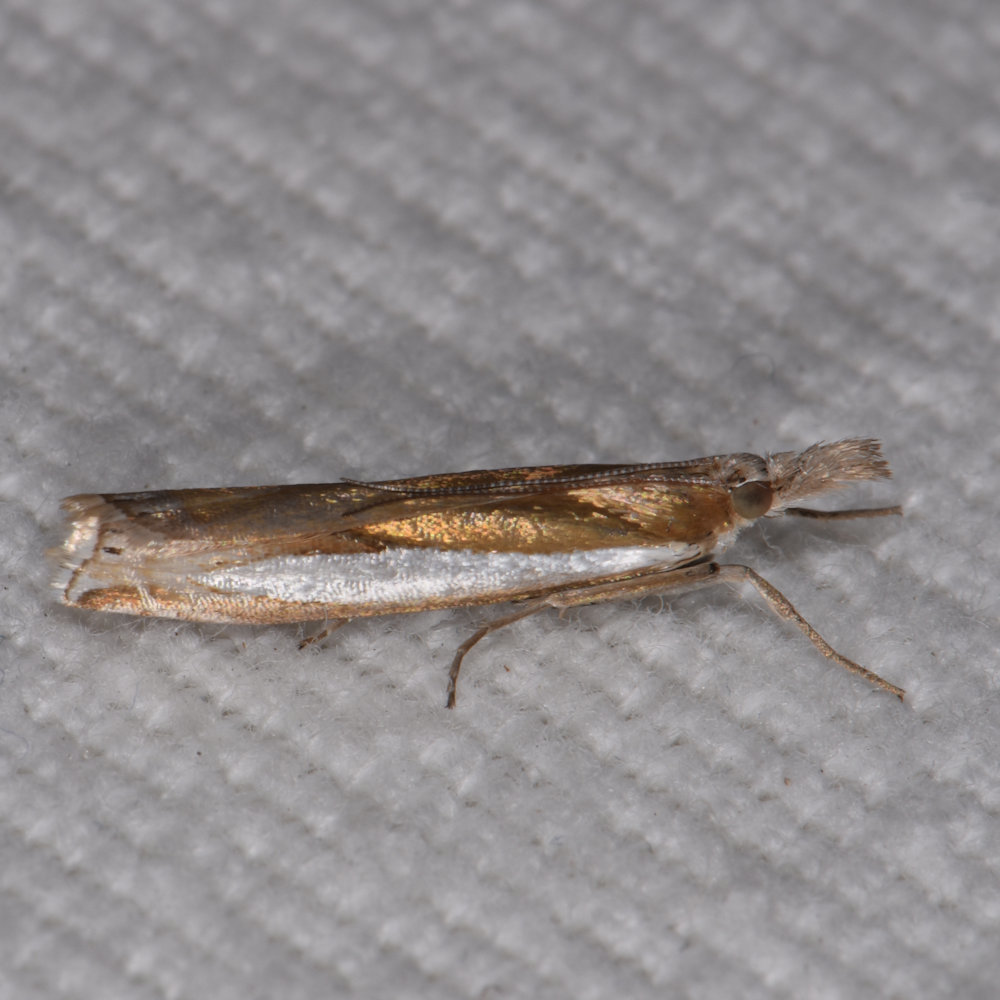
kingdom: Animalia
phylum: Arthropoda
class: Insecta
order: Lepidoptera
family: Crambidae
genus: Crambus
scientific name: Crambus praefectellus
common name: Common grass-veneer
